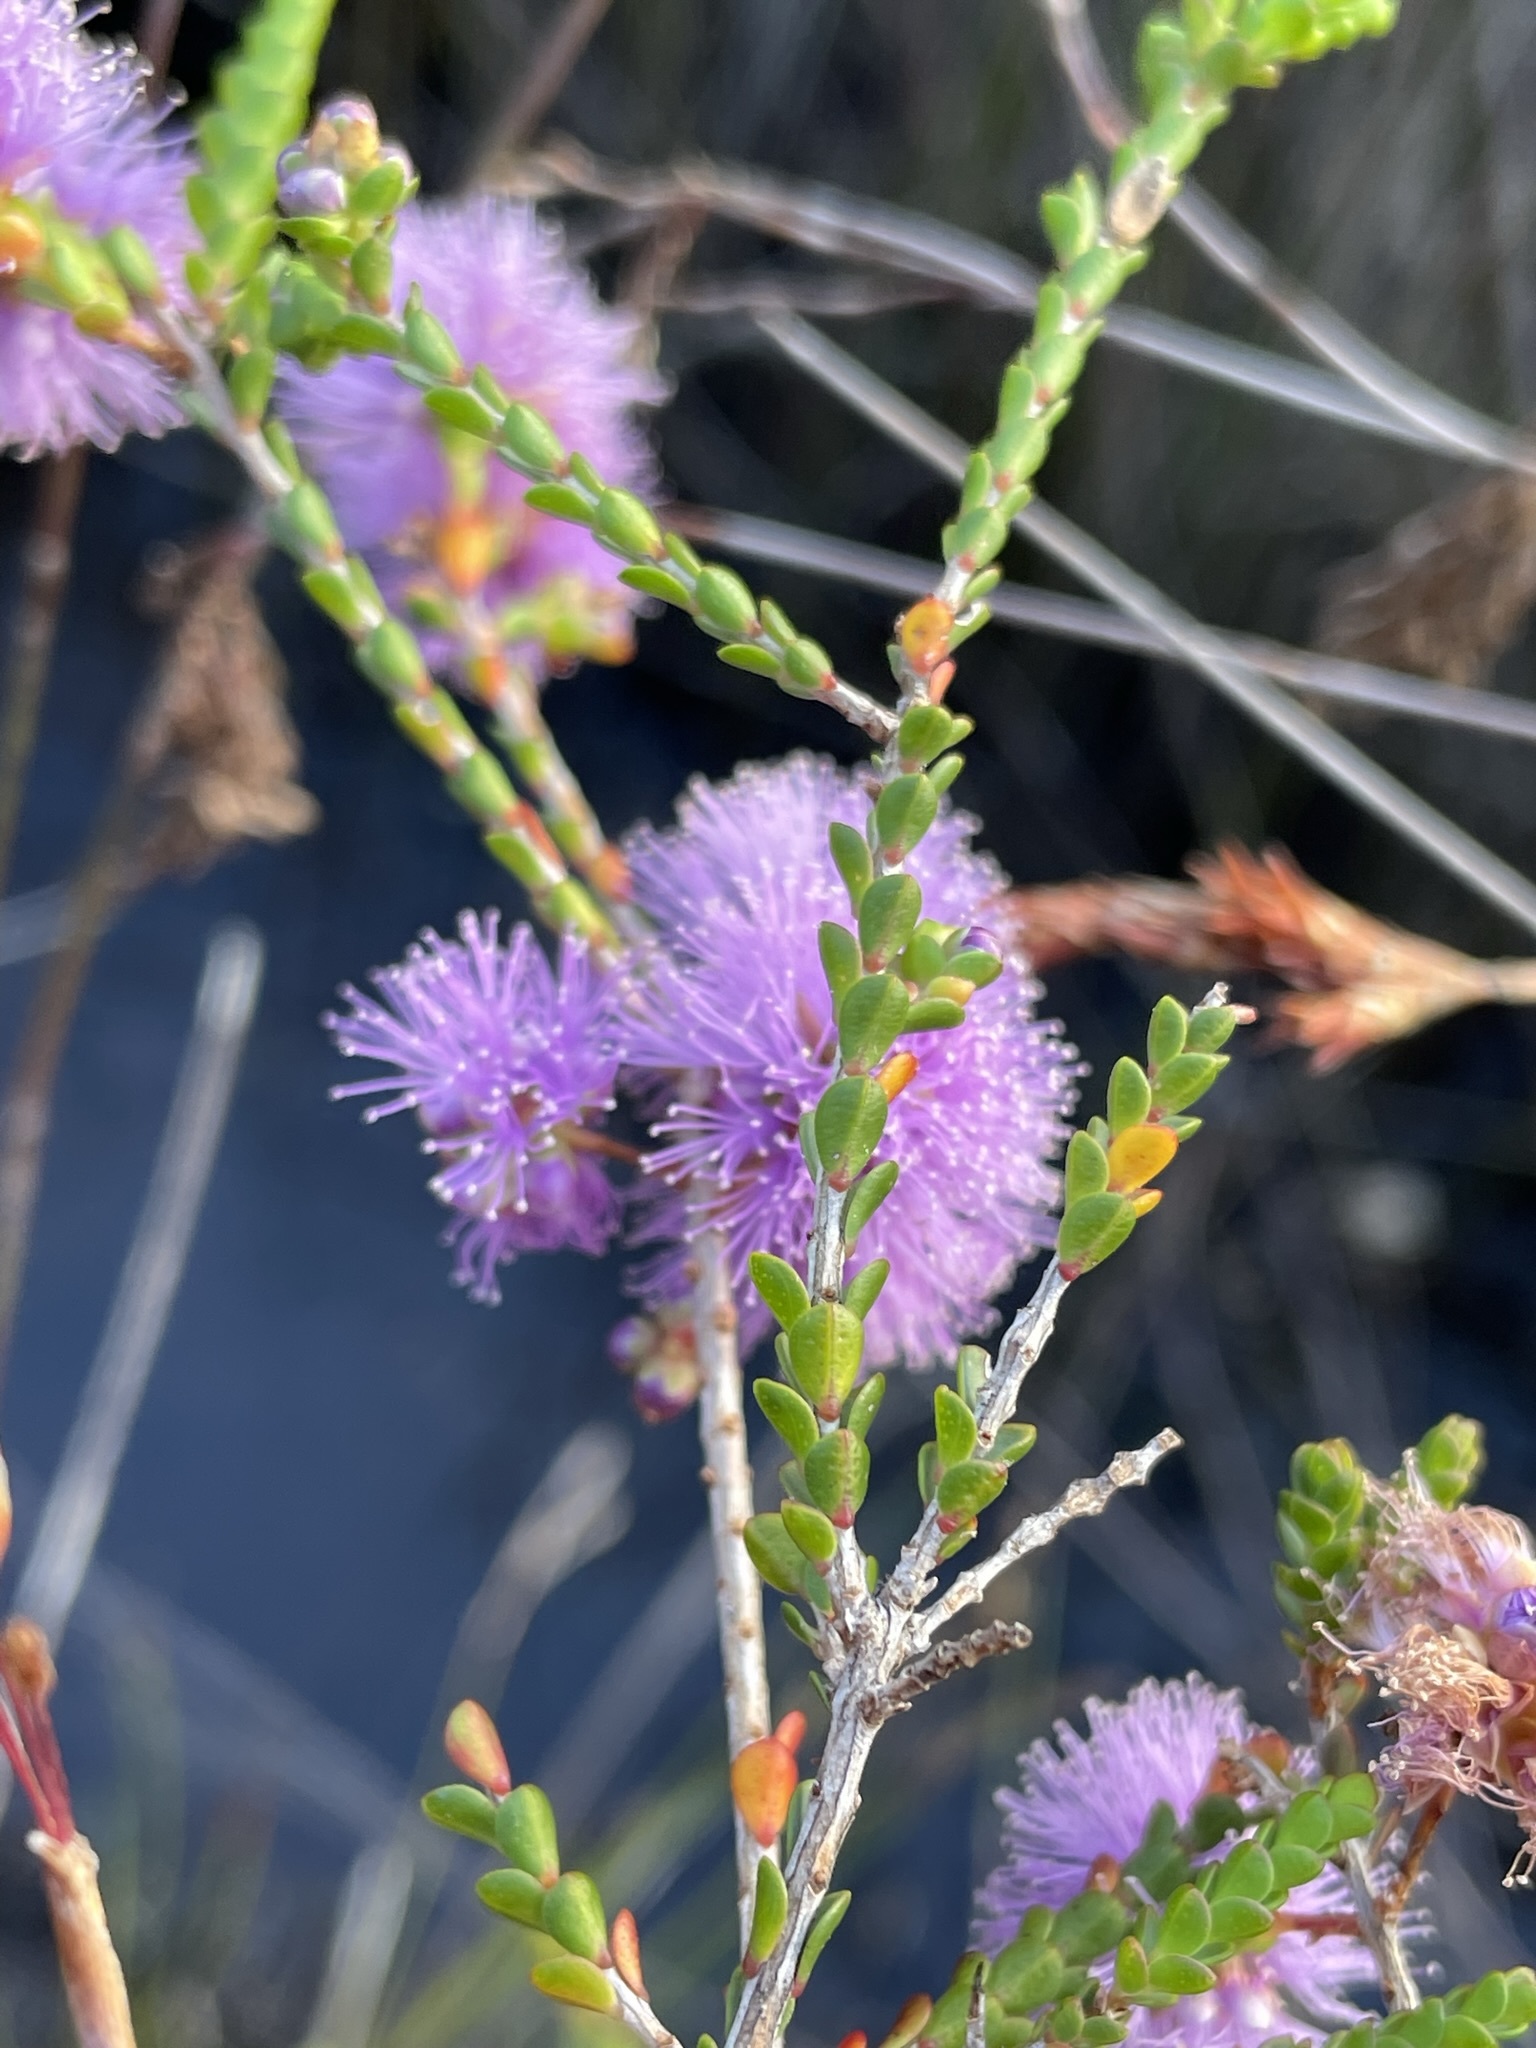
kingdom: Plantae
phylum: Tracheophyta
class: Magnoliopsida
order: Myrtales
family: Myrtaceae
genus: Melaleuca
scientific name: Melaleuca gibbosa
